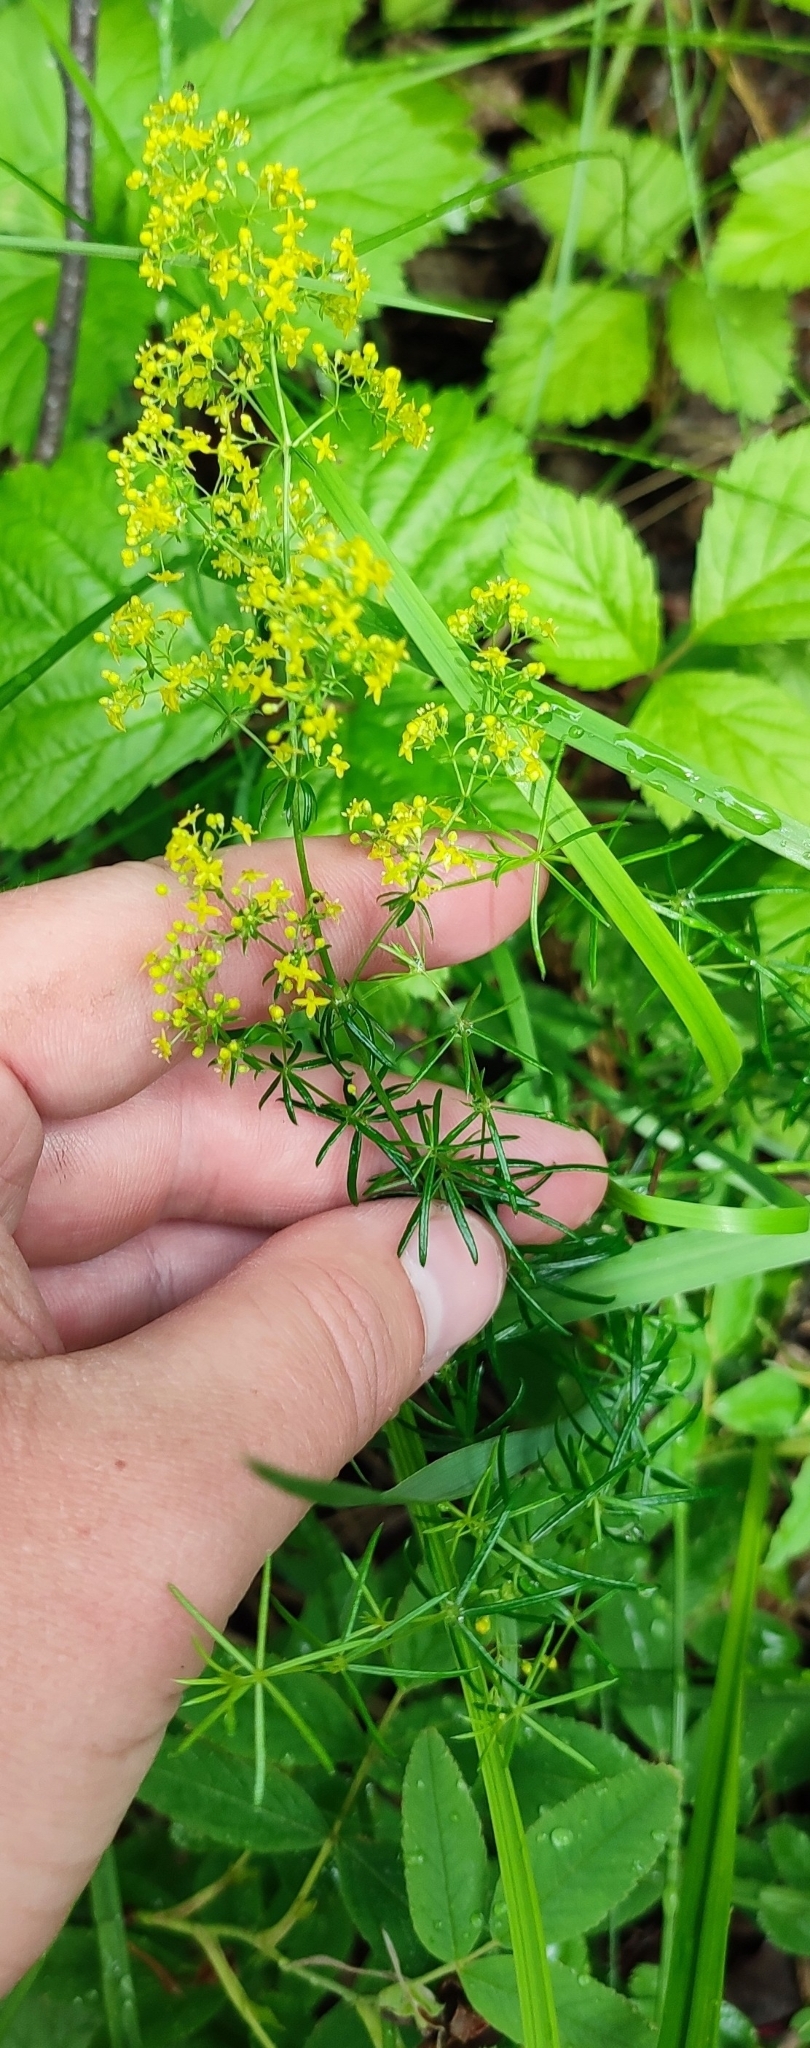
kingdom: Plantae
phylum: Tracheophyta
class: Magnoliopsida
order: Gentianales
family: Rubiaceae
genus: Galium
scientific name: Galium verum
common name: Lady's bedstraw
